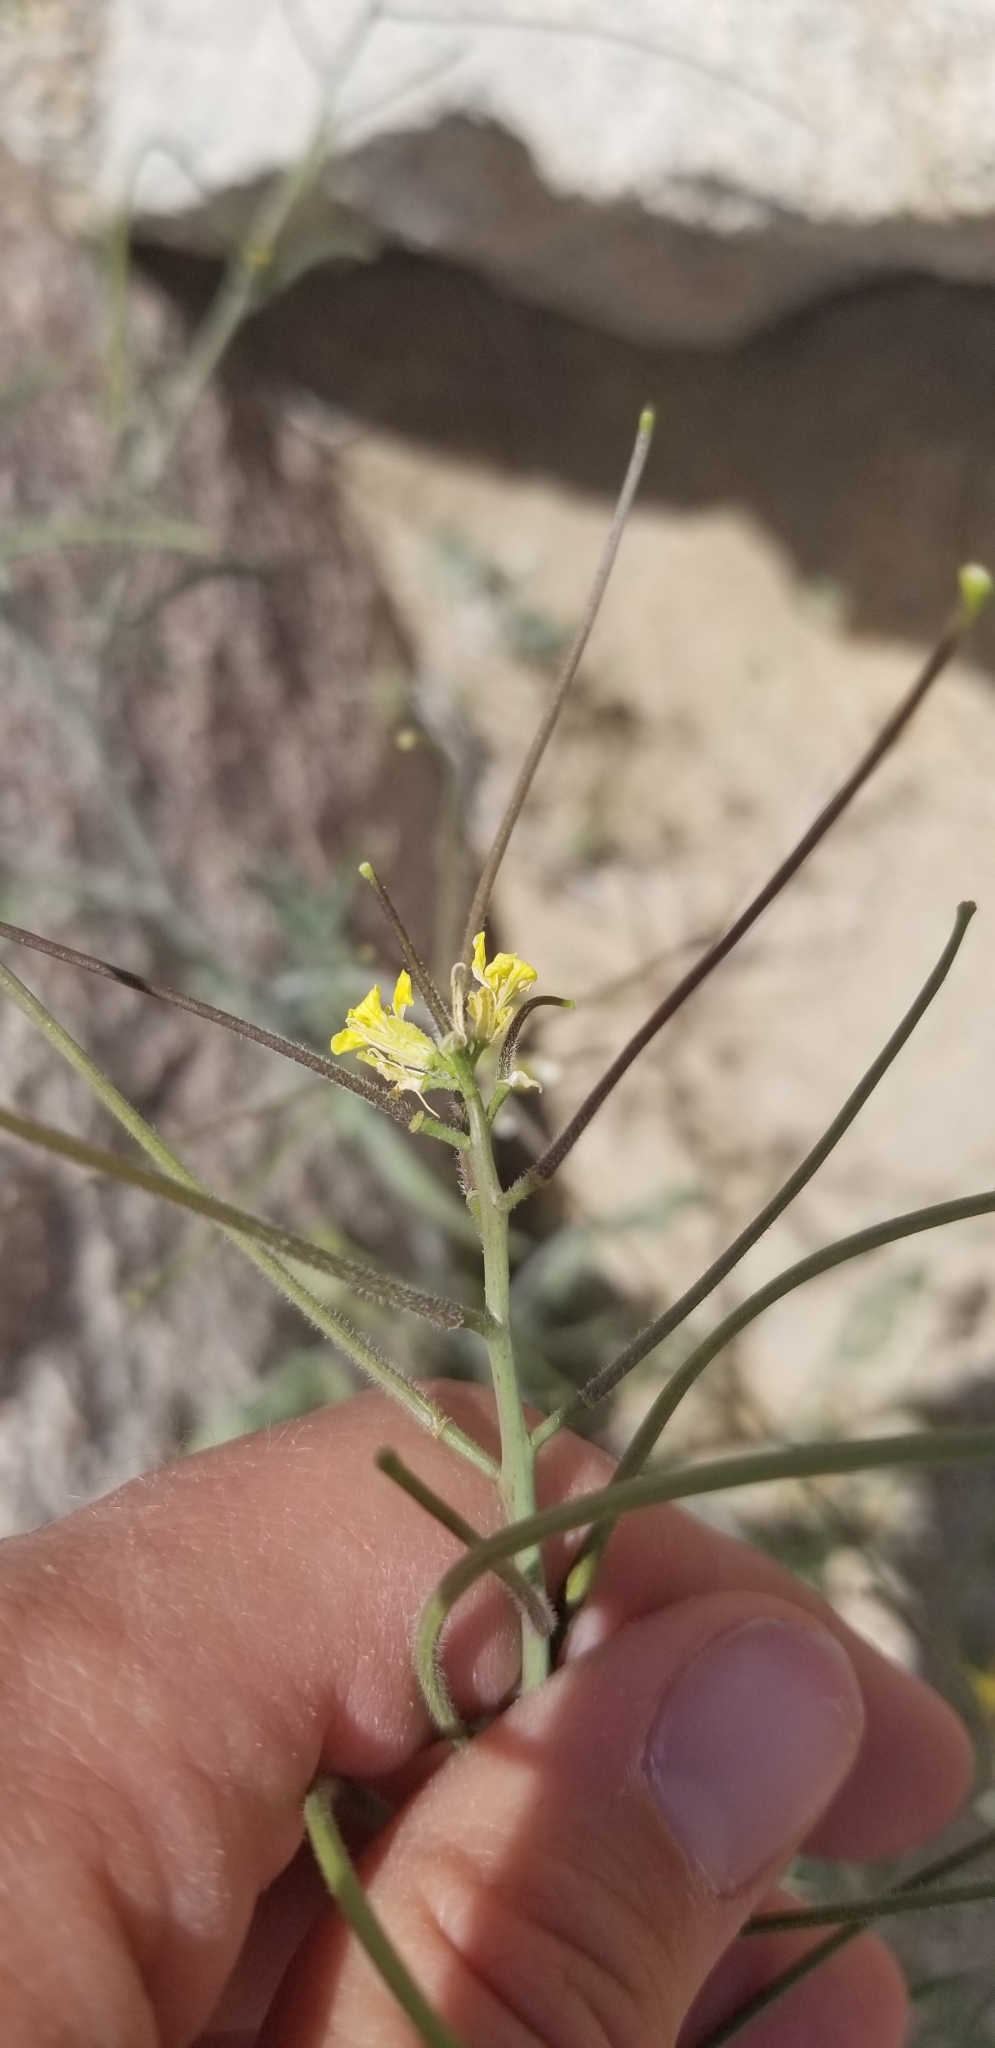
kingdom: Plantae
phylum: Tracheophyta
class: Magnoliopsida
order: Brassicales
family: Brassicaceae
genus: Sisymbrium
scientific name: Sisymbrium irio
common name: London rocket
